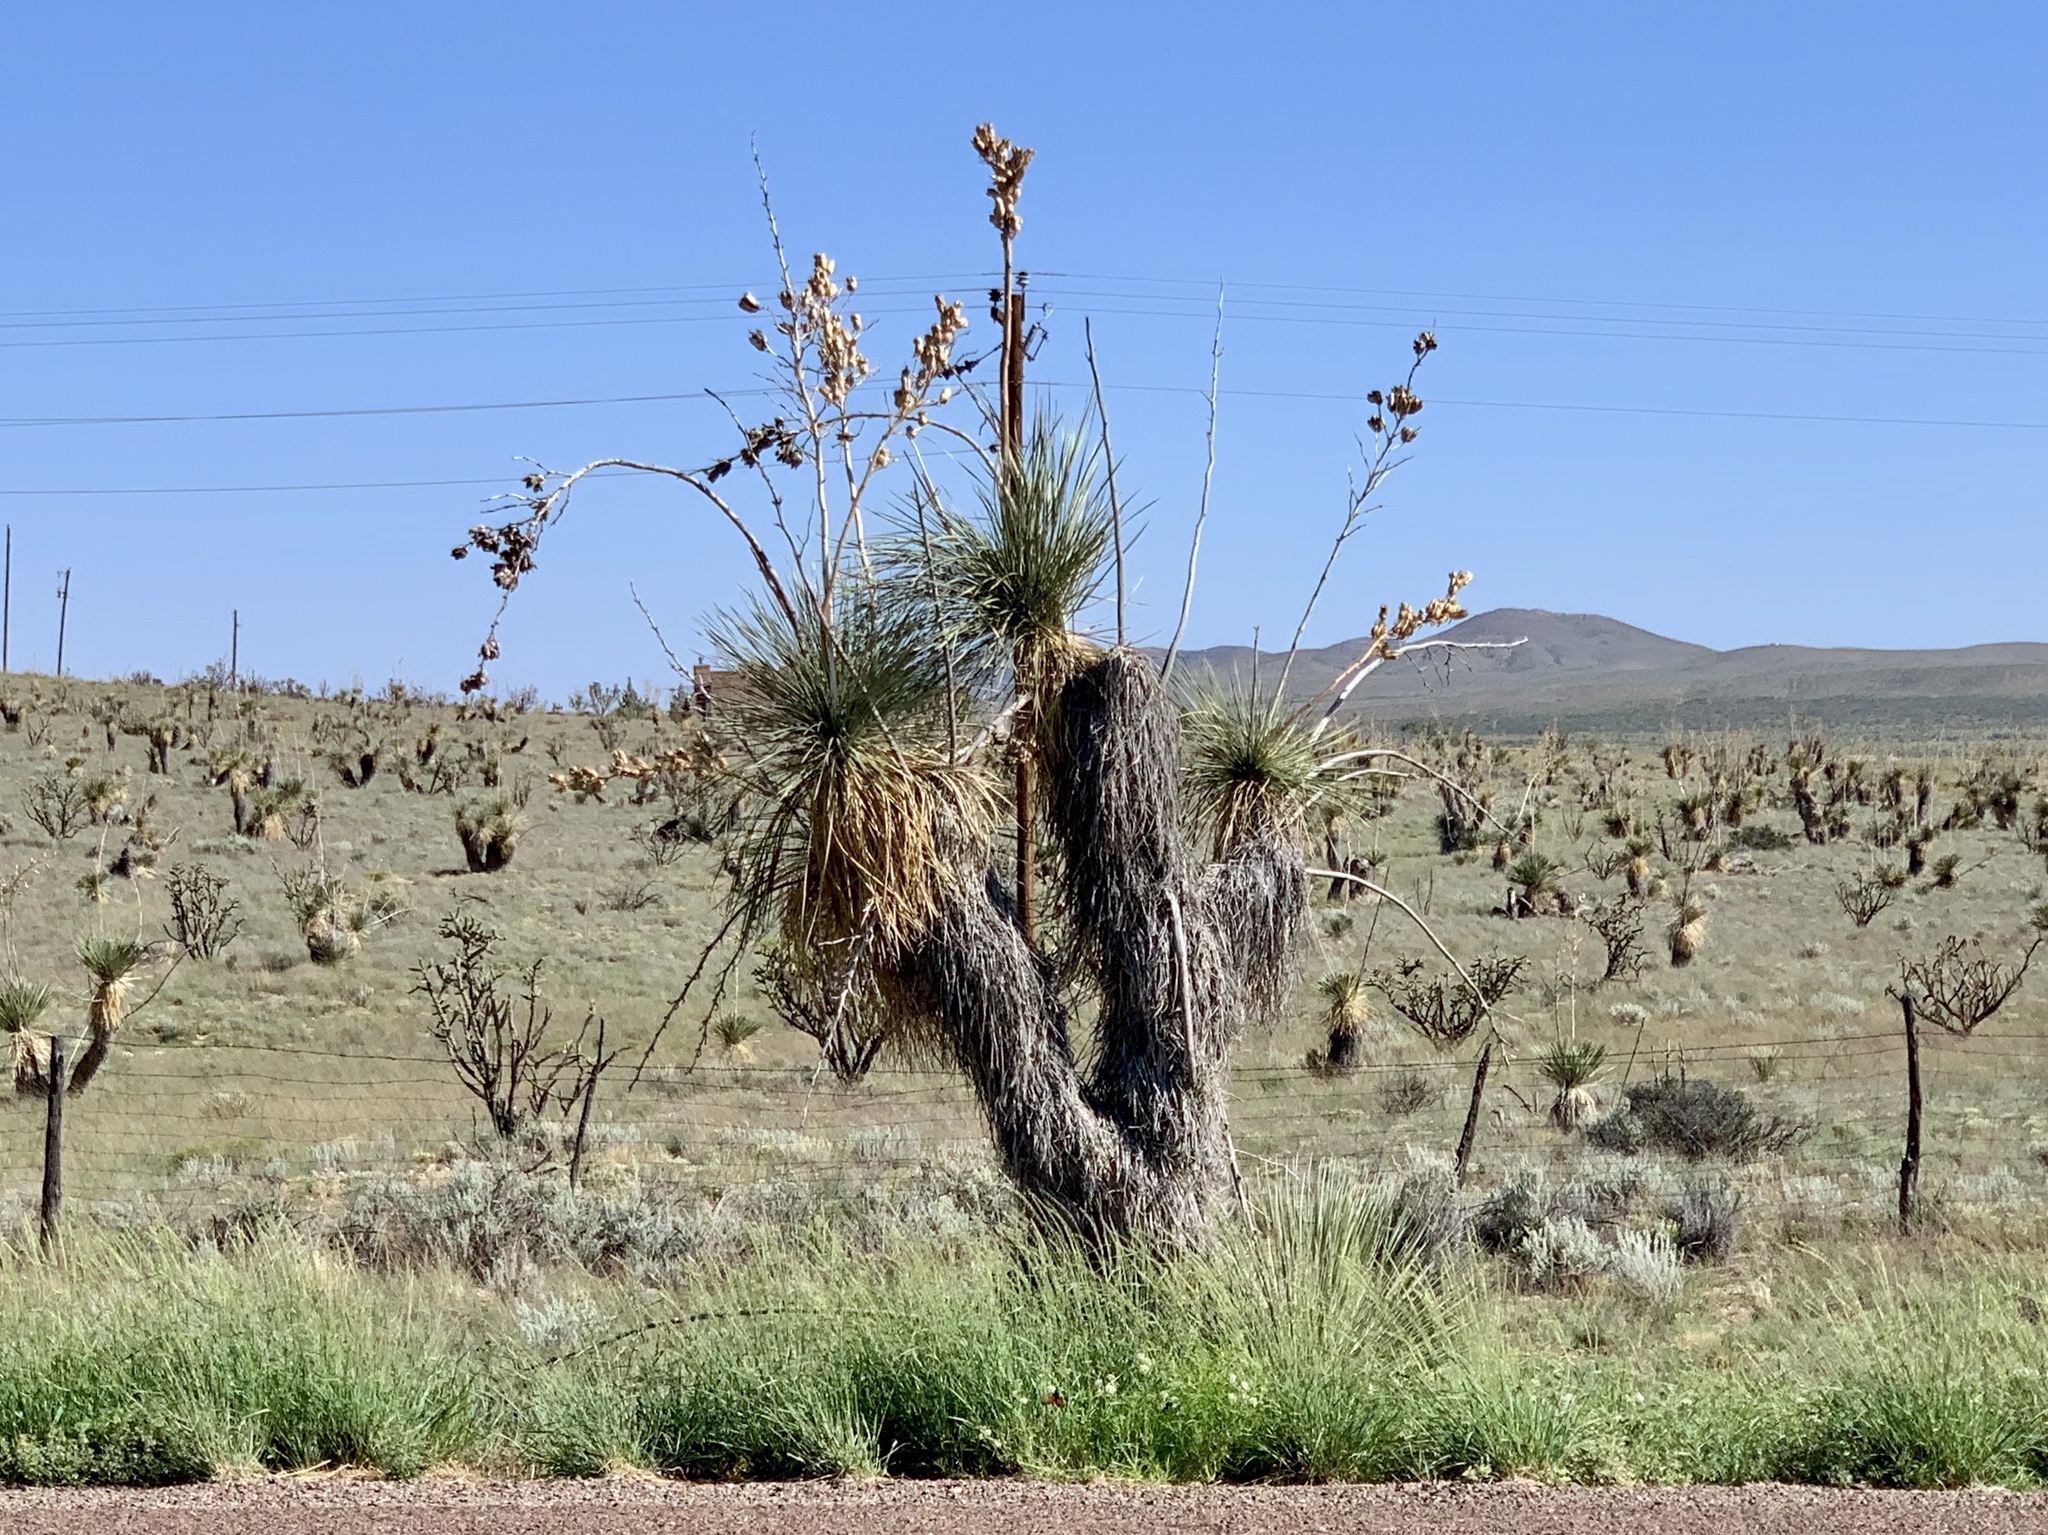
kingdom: Plantae
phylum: Tracheophyta
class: Liliopsida
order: Asparagales
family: Asparagaceae
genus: Yucca
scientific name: Yucca elata
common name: Palmella
